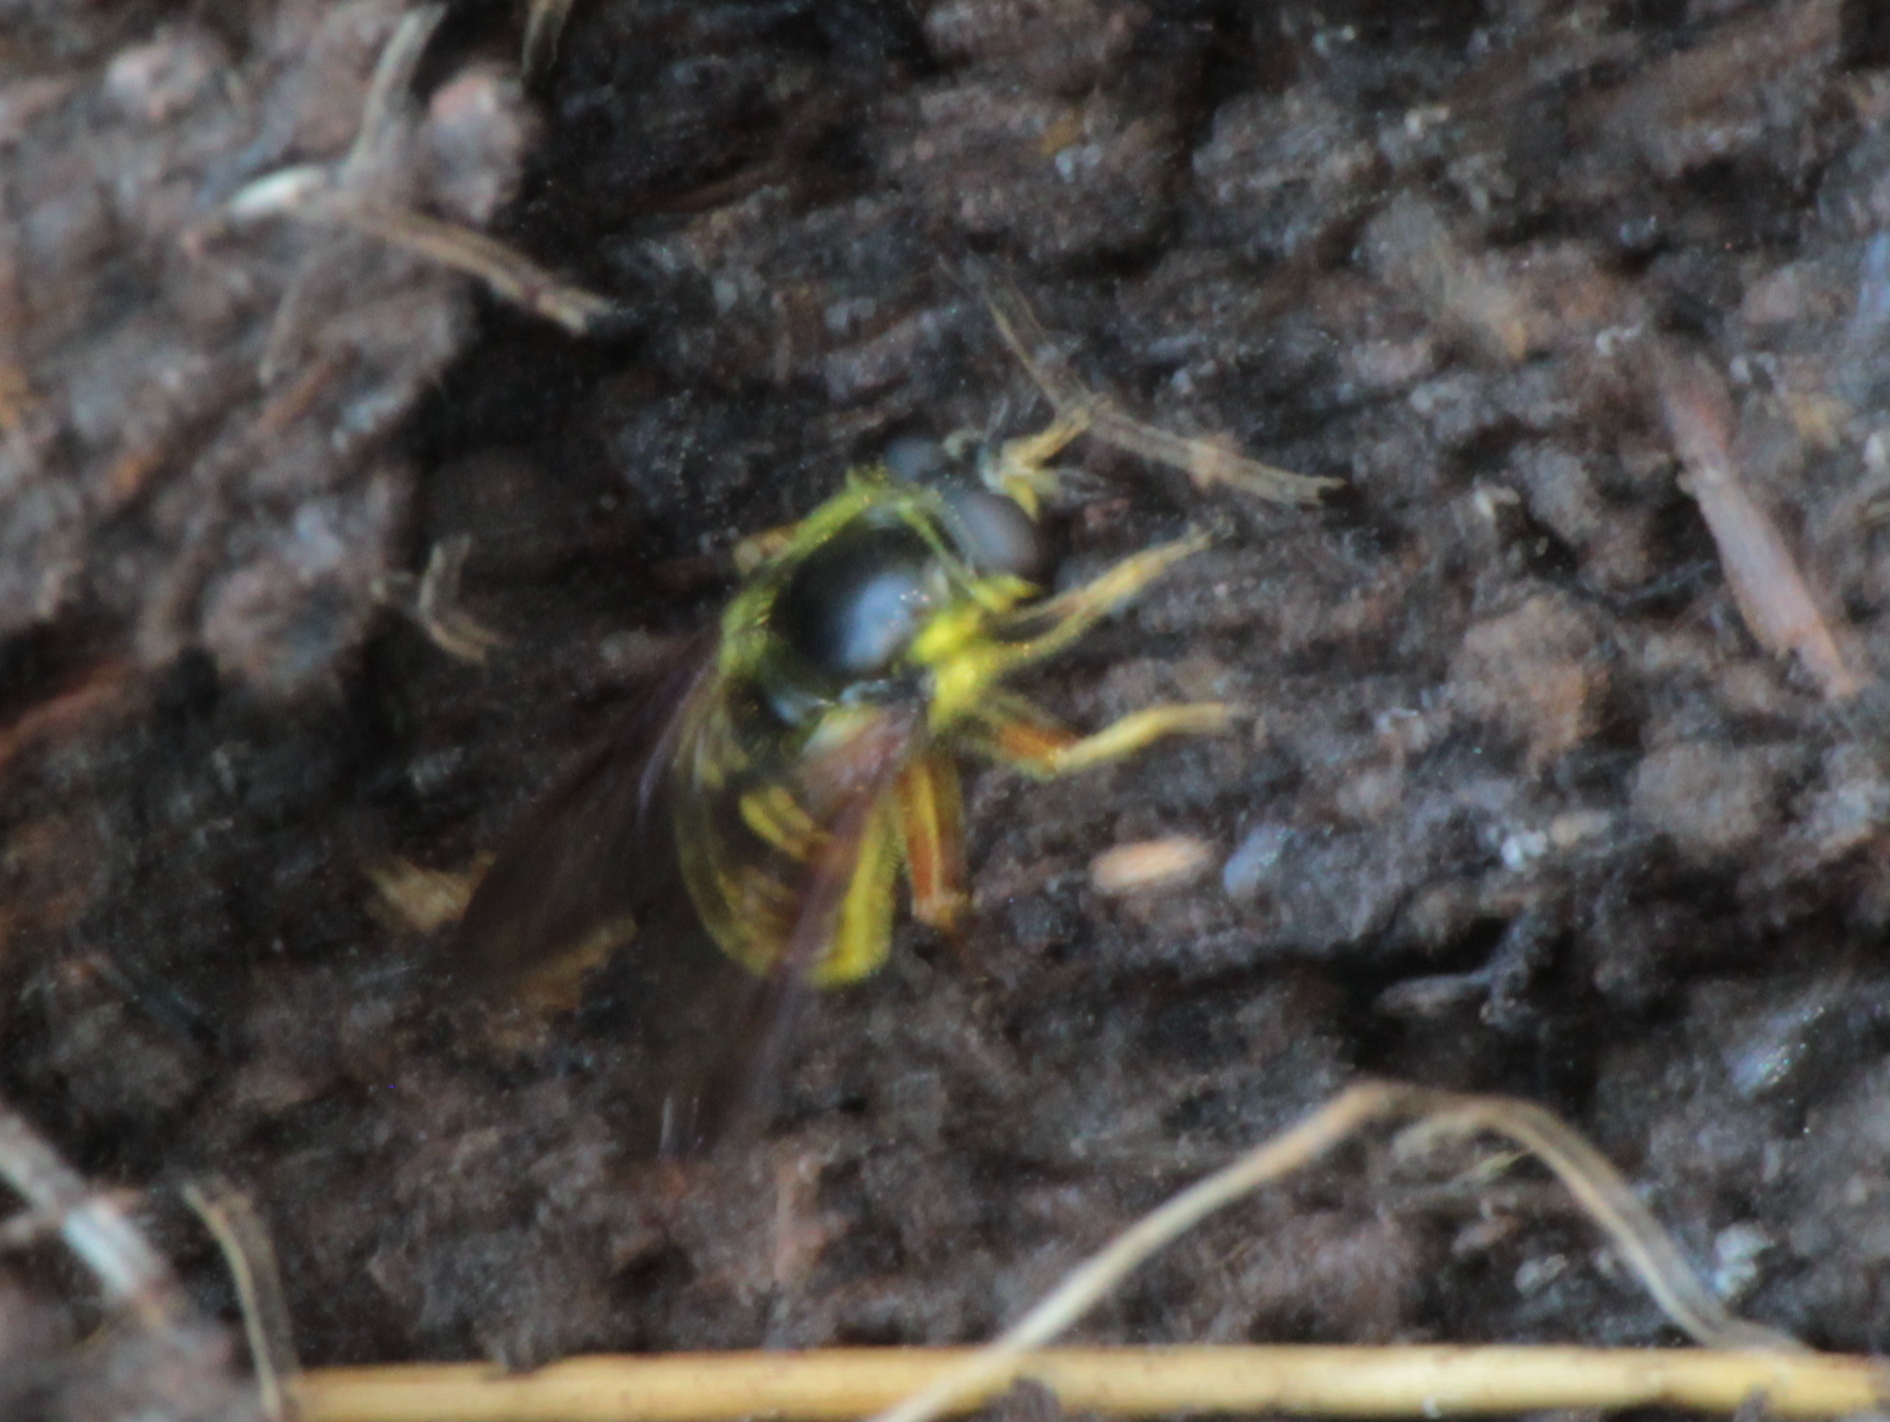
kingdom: Animalia
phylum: Arthropoda
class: Insecta
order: Diptera
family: Syrphidae
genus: Sericomyia
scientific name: Sericomyia chrysotoxoides
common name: Oblique-banded pond fly
